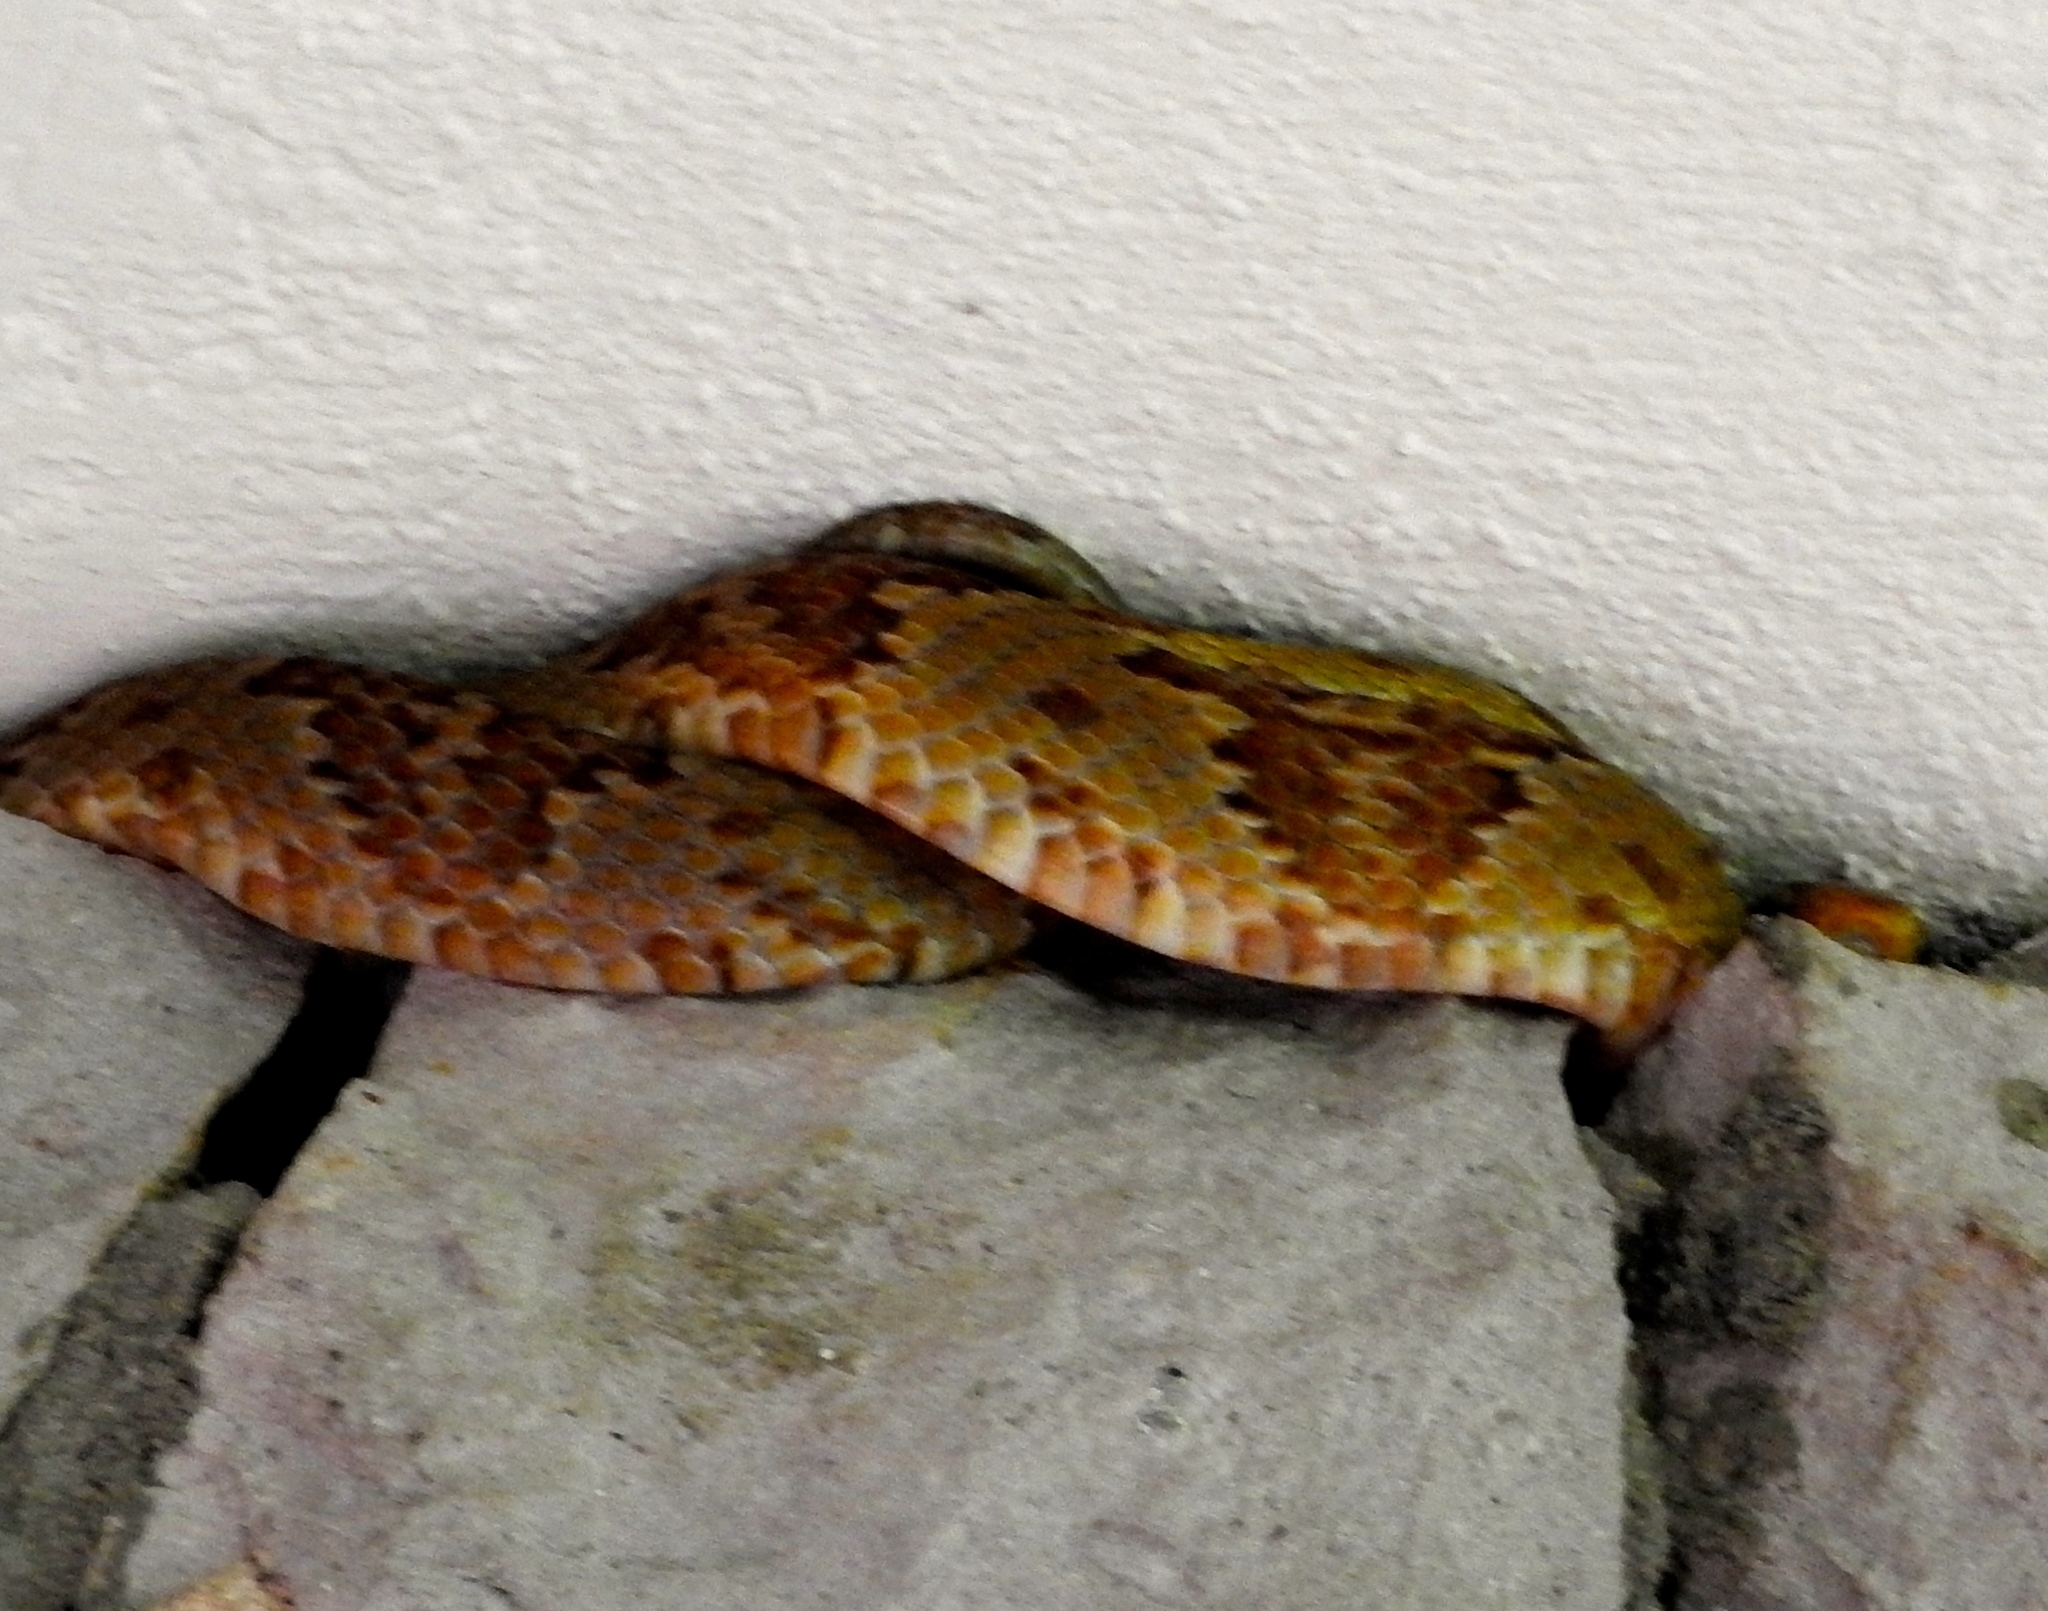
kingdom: Animalia
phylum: Chordata
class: Squamata
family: Colubridae
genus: Trimorphodon
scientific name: Trimorphodon paucimaculatus
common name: Sinaloan lyresnake
